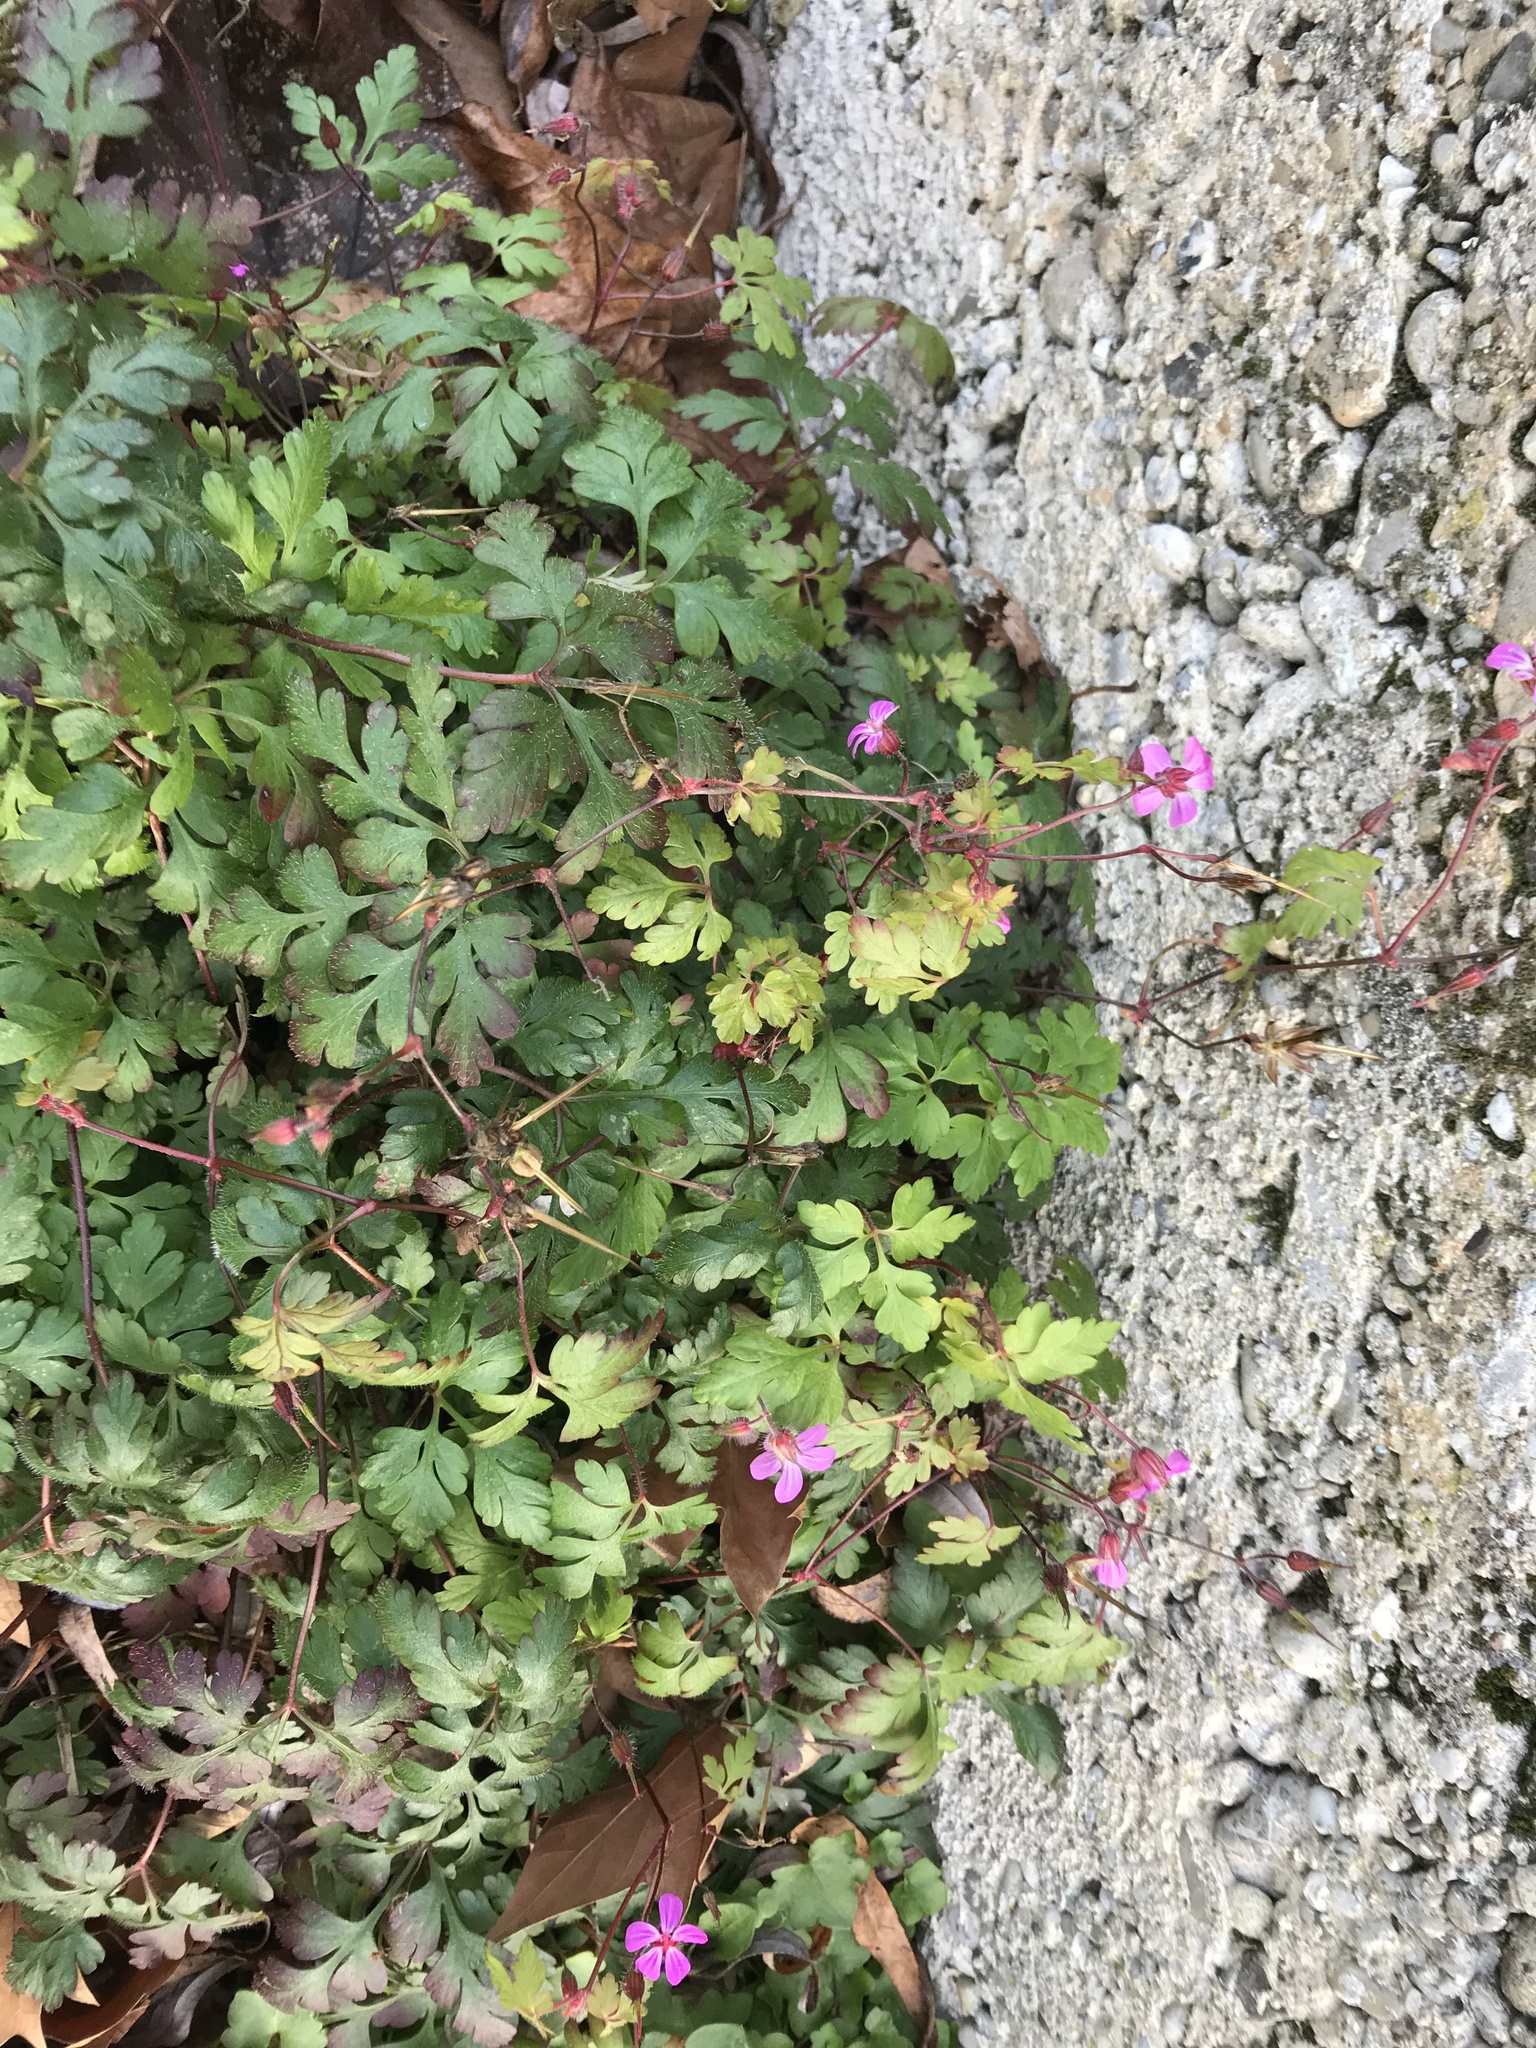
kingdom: Plantae
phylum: Tracheophyta
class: Magnoliopsida
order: Geraniales
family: Geraniaceae
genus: Geranium
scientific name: Geranium robertianum
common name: Herb-robert
